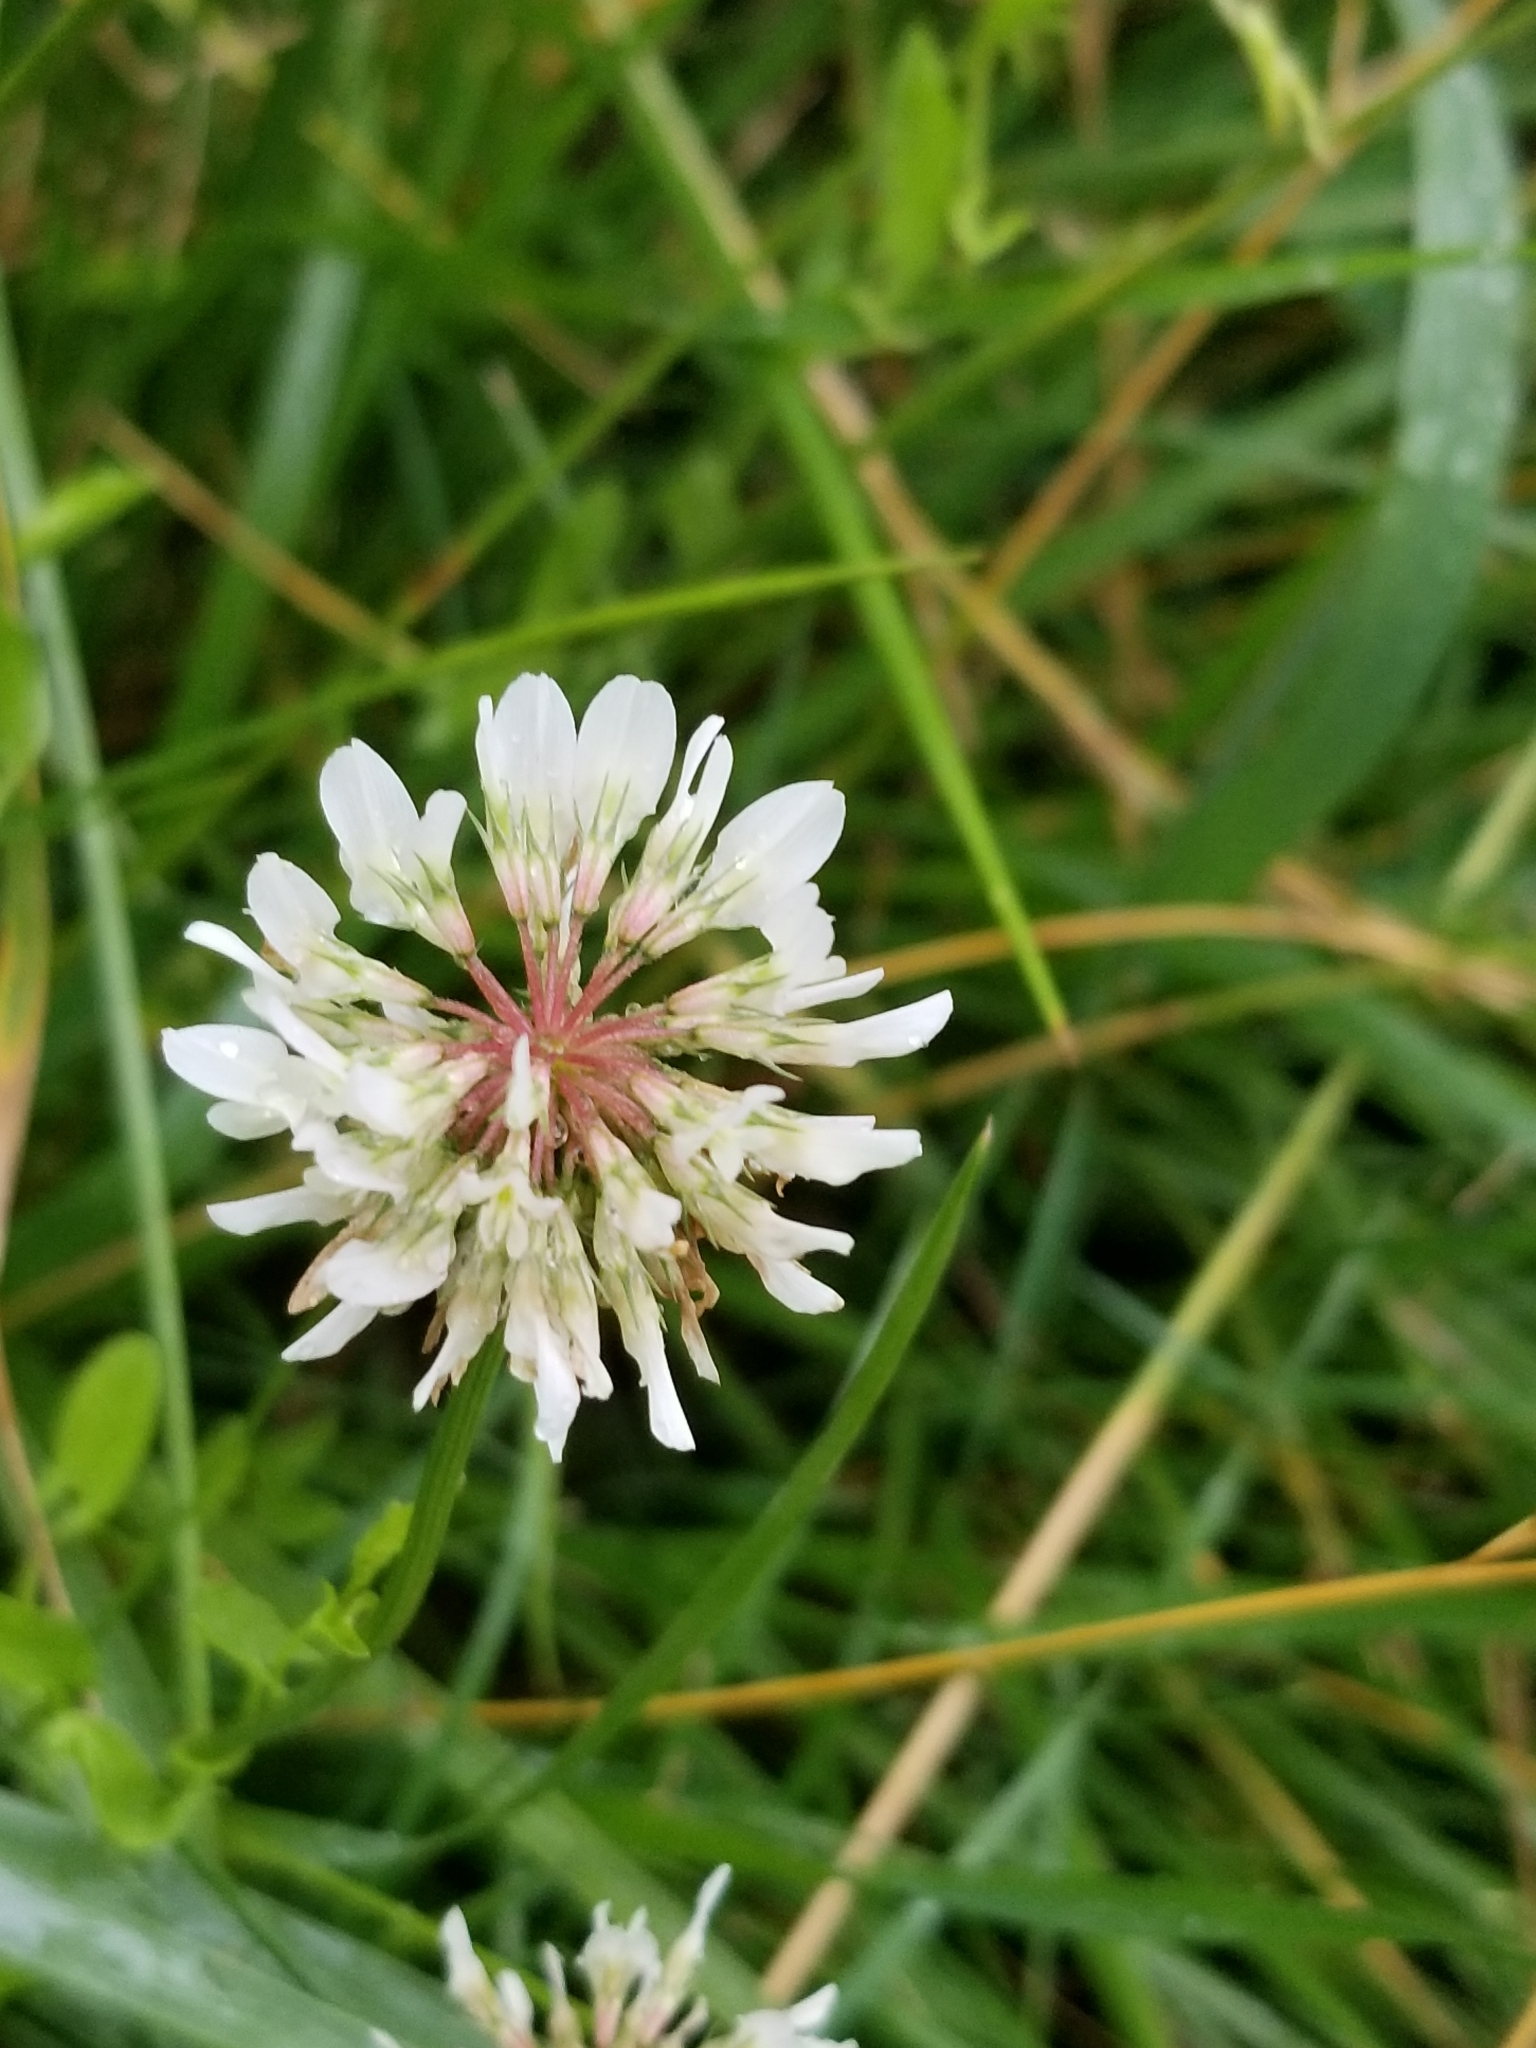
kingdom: Plantae
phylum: Tracheophyta
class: Magnoliopsida
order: Fabales
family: Fabaceae
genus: Trifolium
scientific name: Trifolium repens
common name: White clover
